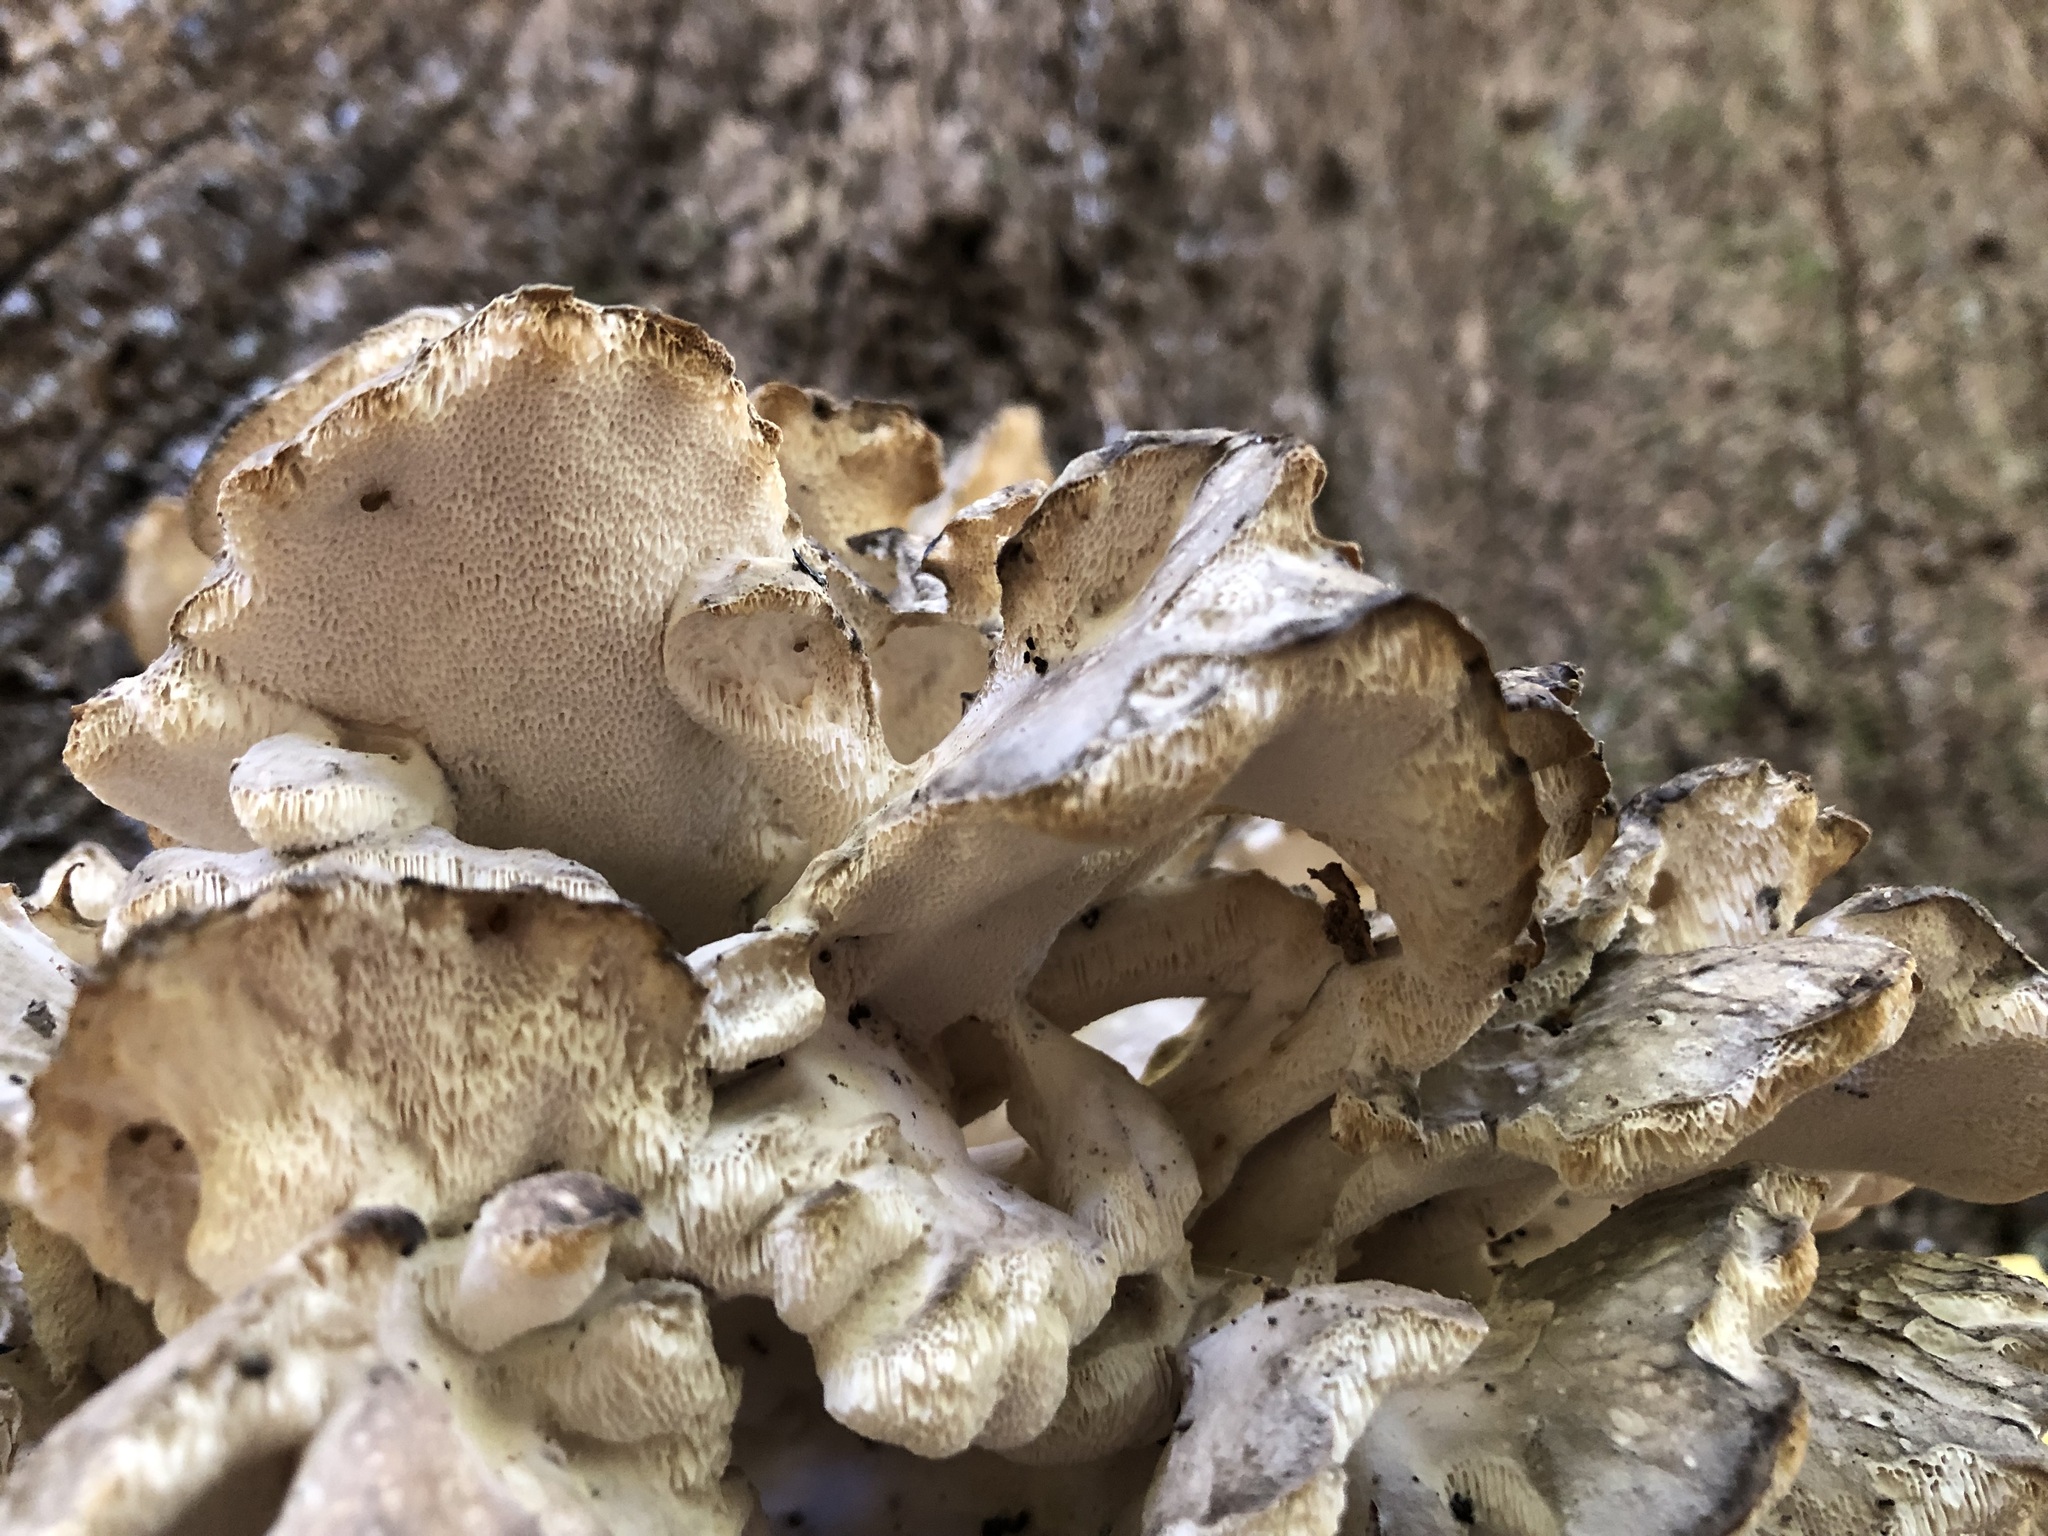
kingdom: Fungi
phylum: Basidiomycota
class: Agaricomycetes
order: Polyporales
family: Grifolaceae
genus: Grifola
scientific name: Grifola frondosa
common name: Hen of the woods
